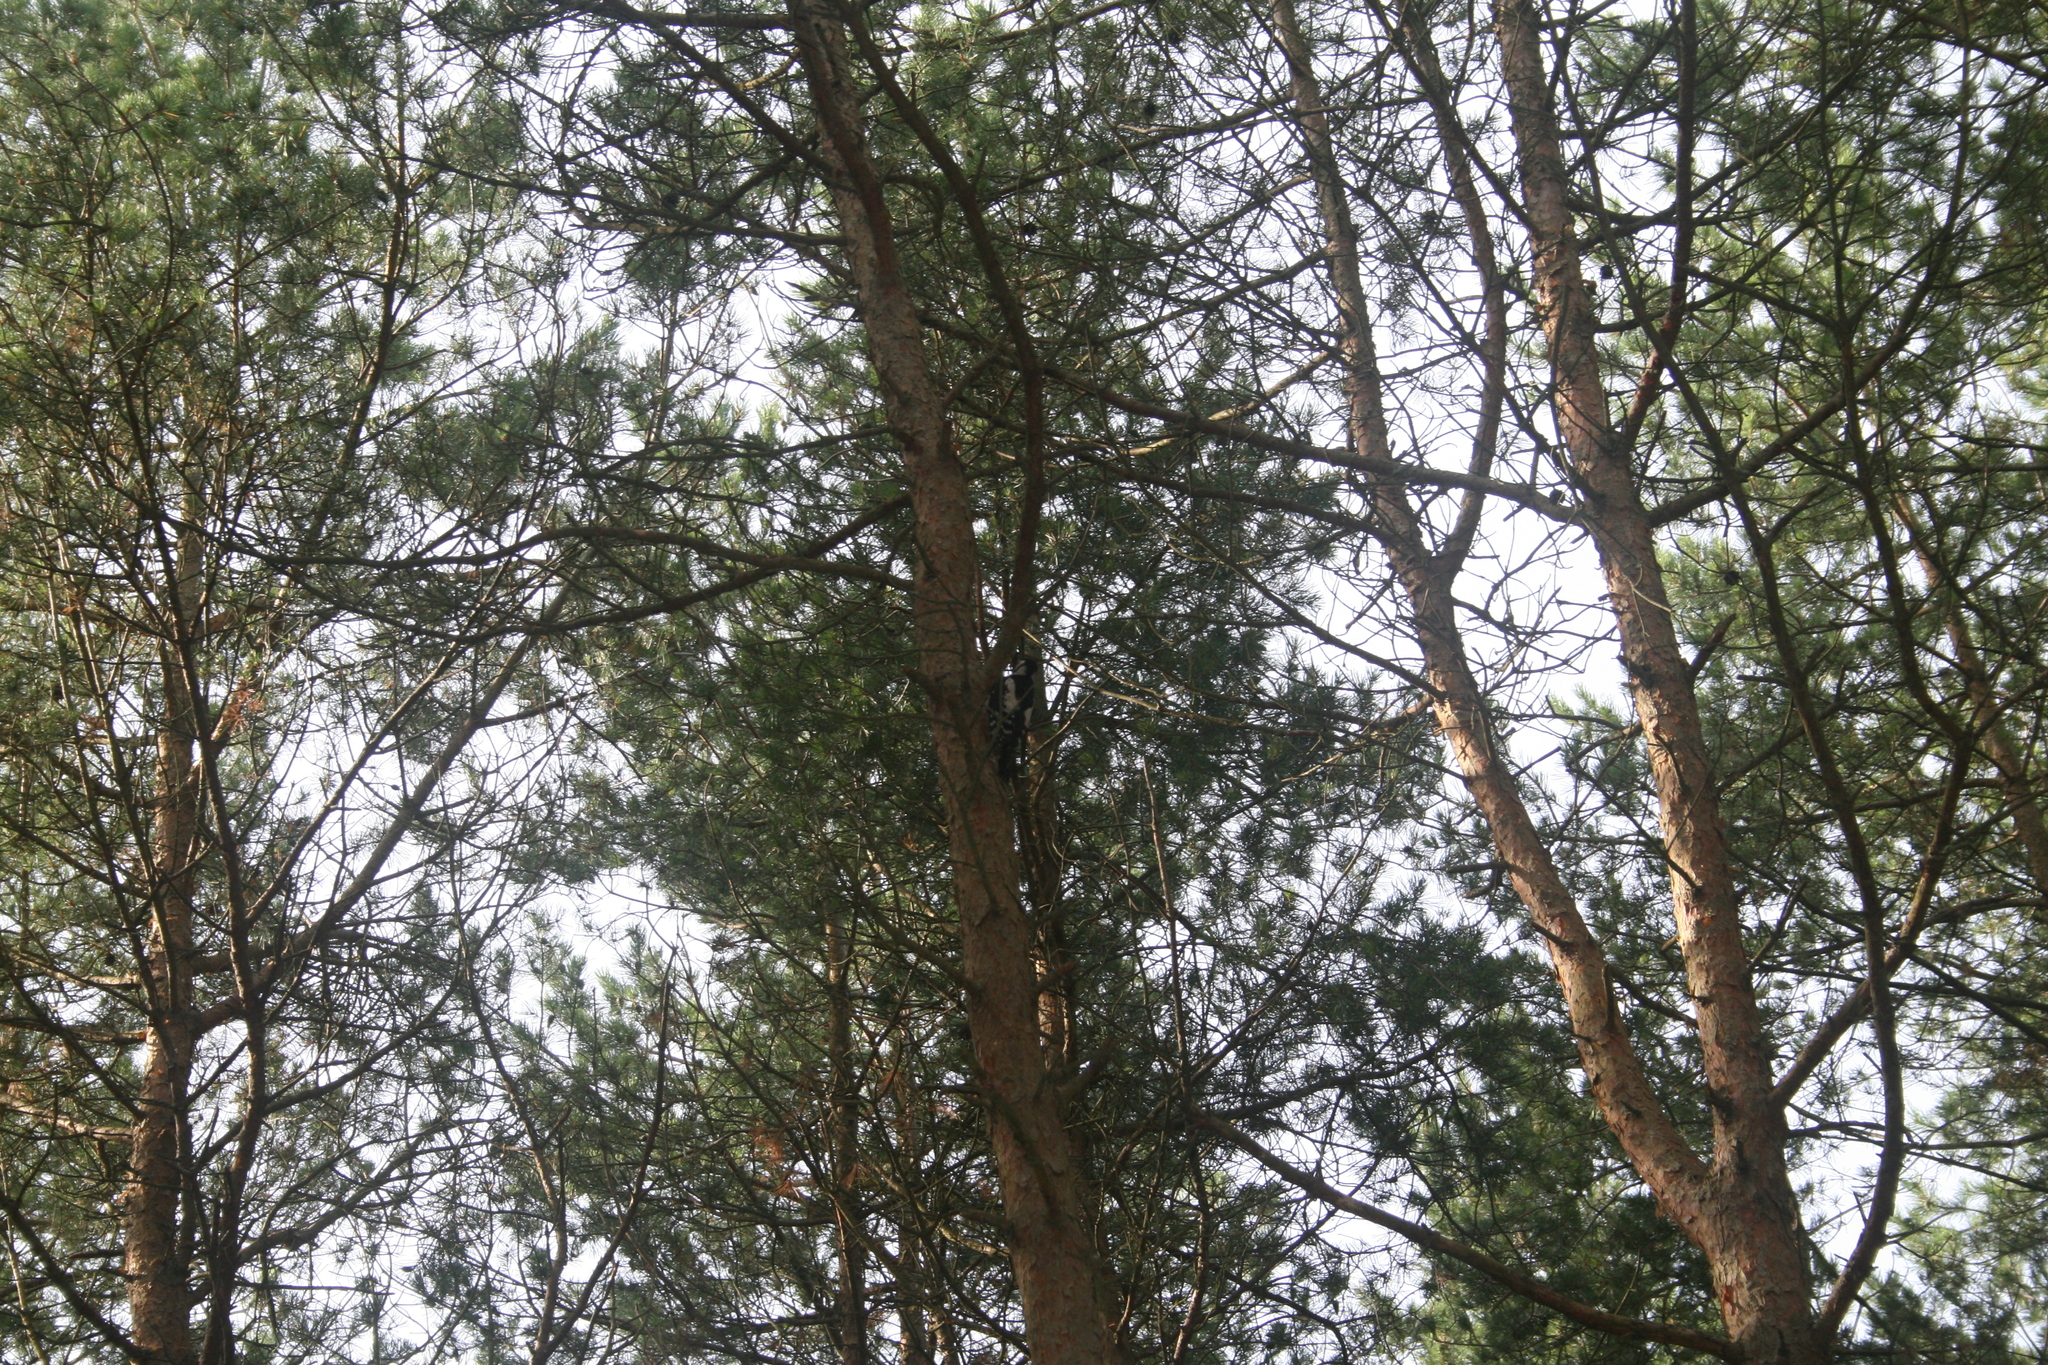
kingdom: Animalia
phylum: Chordata
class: Aves
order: Piciformes
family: Picidae
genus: Dendrocopos
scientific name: Dendrocopos major
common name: Great spotted woodpecker
